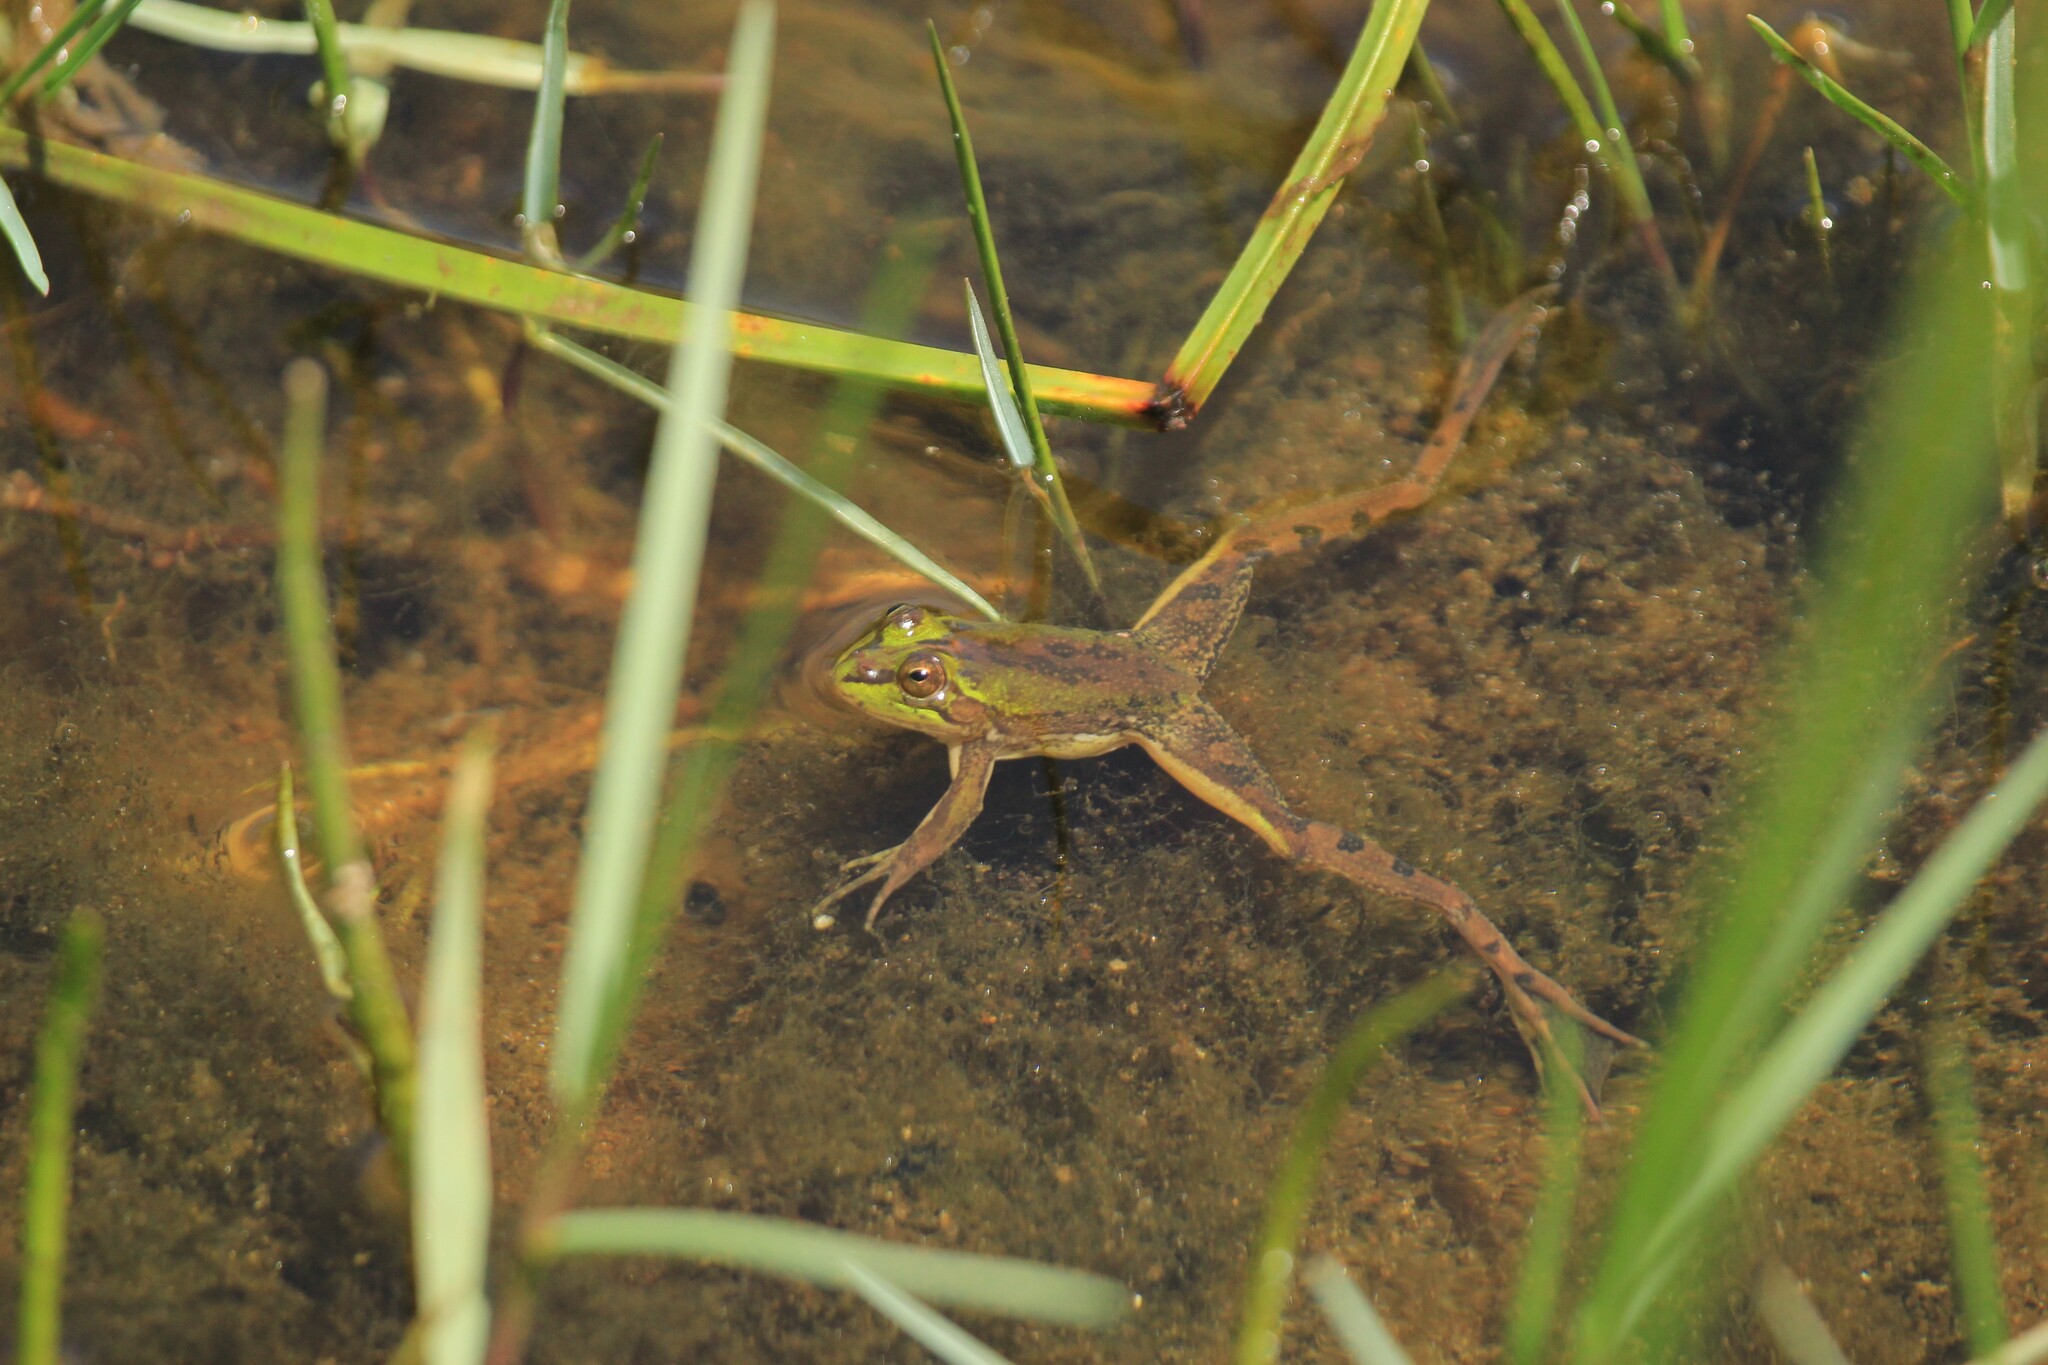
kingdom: Animalia
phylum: Chordata
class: Amphibia
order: Anura
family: Hylidae
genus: Pseudis
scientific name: Pseudis minuta
